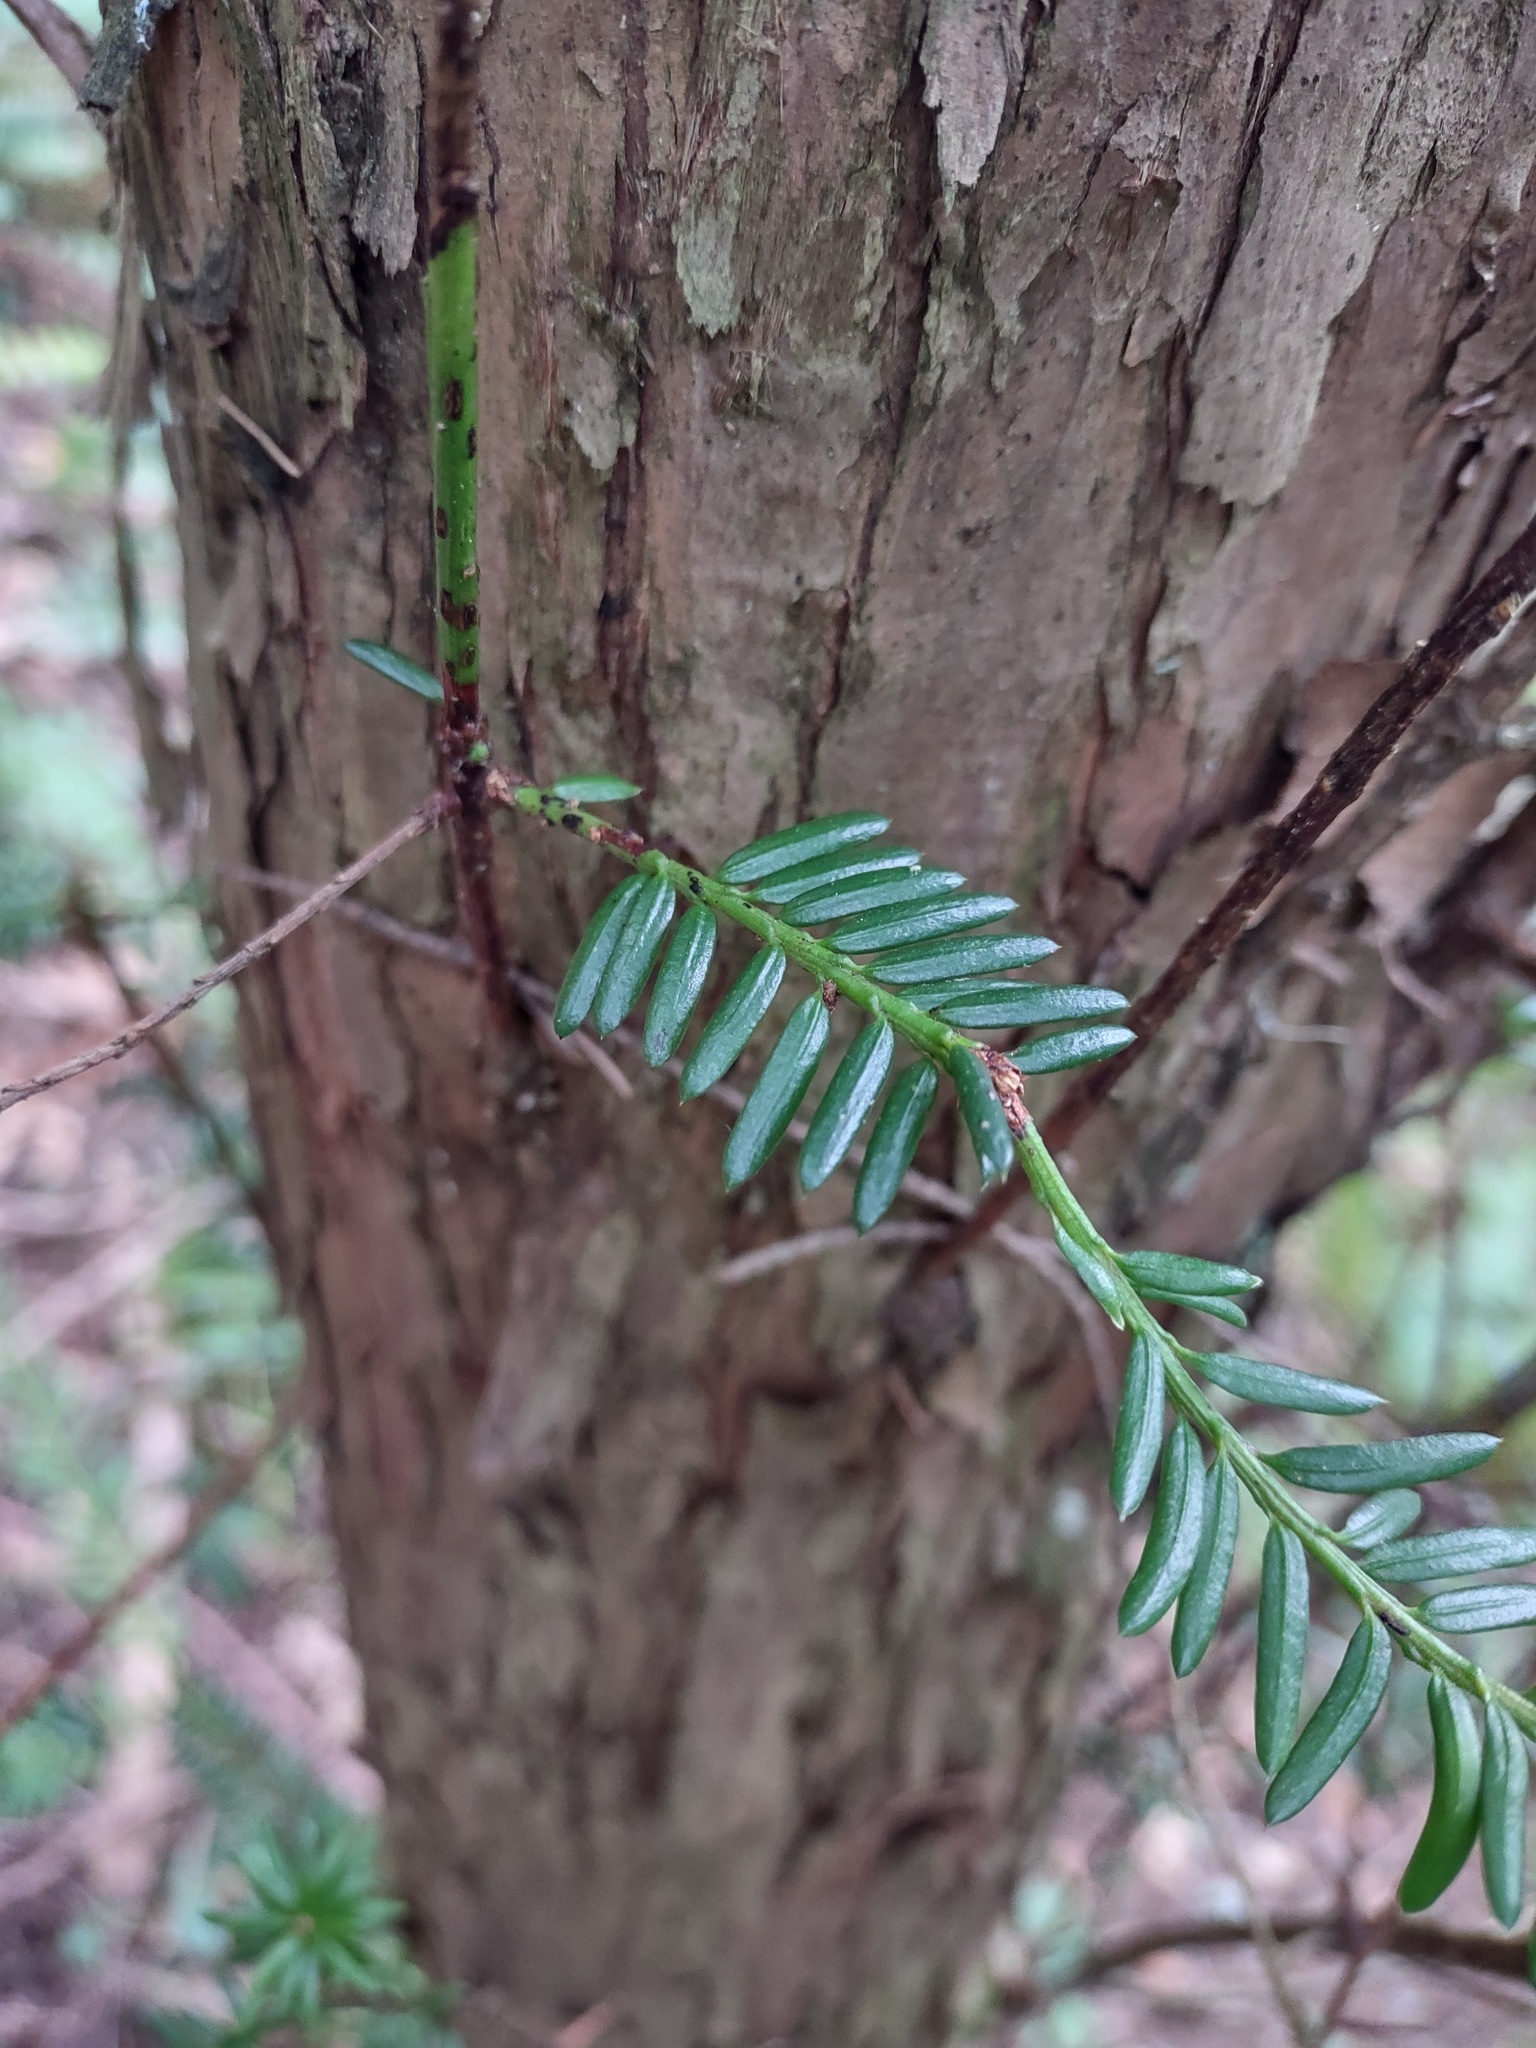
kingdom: Plantae
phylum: Tracheophyta
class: Pinopsida
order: Pinales
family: Taxaceae
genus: Taxus
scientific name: Taxus brevifolia
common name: Pacific yew
